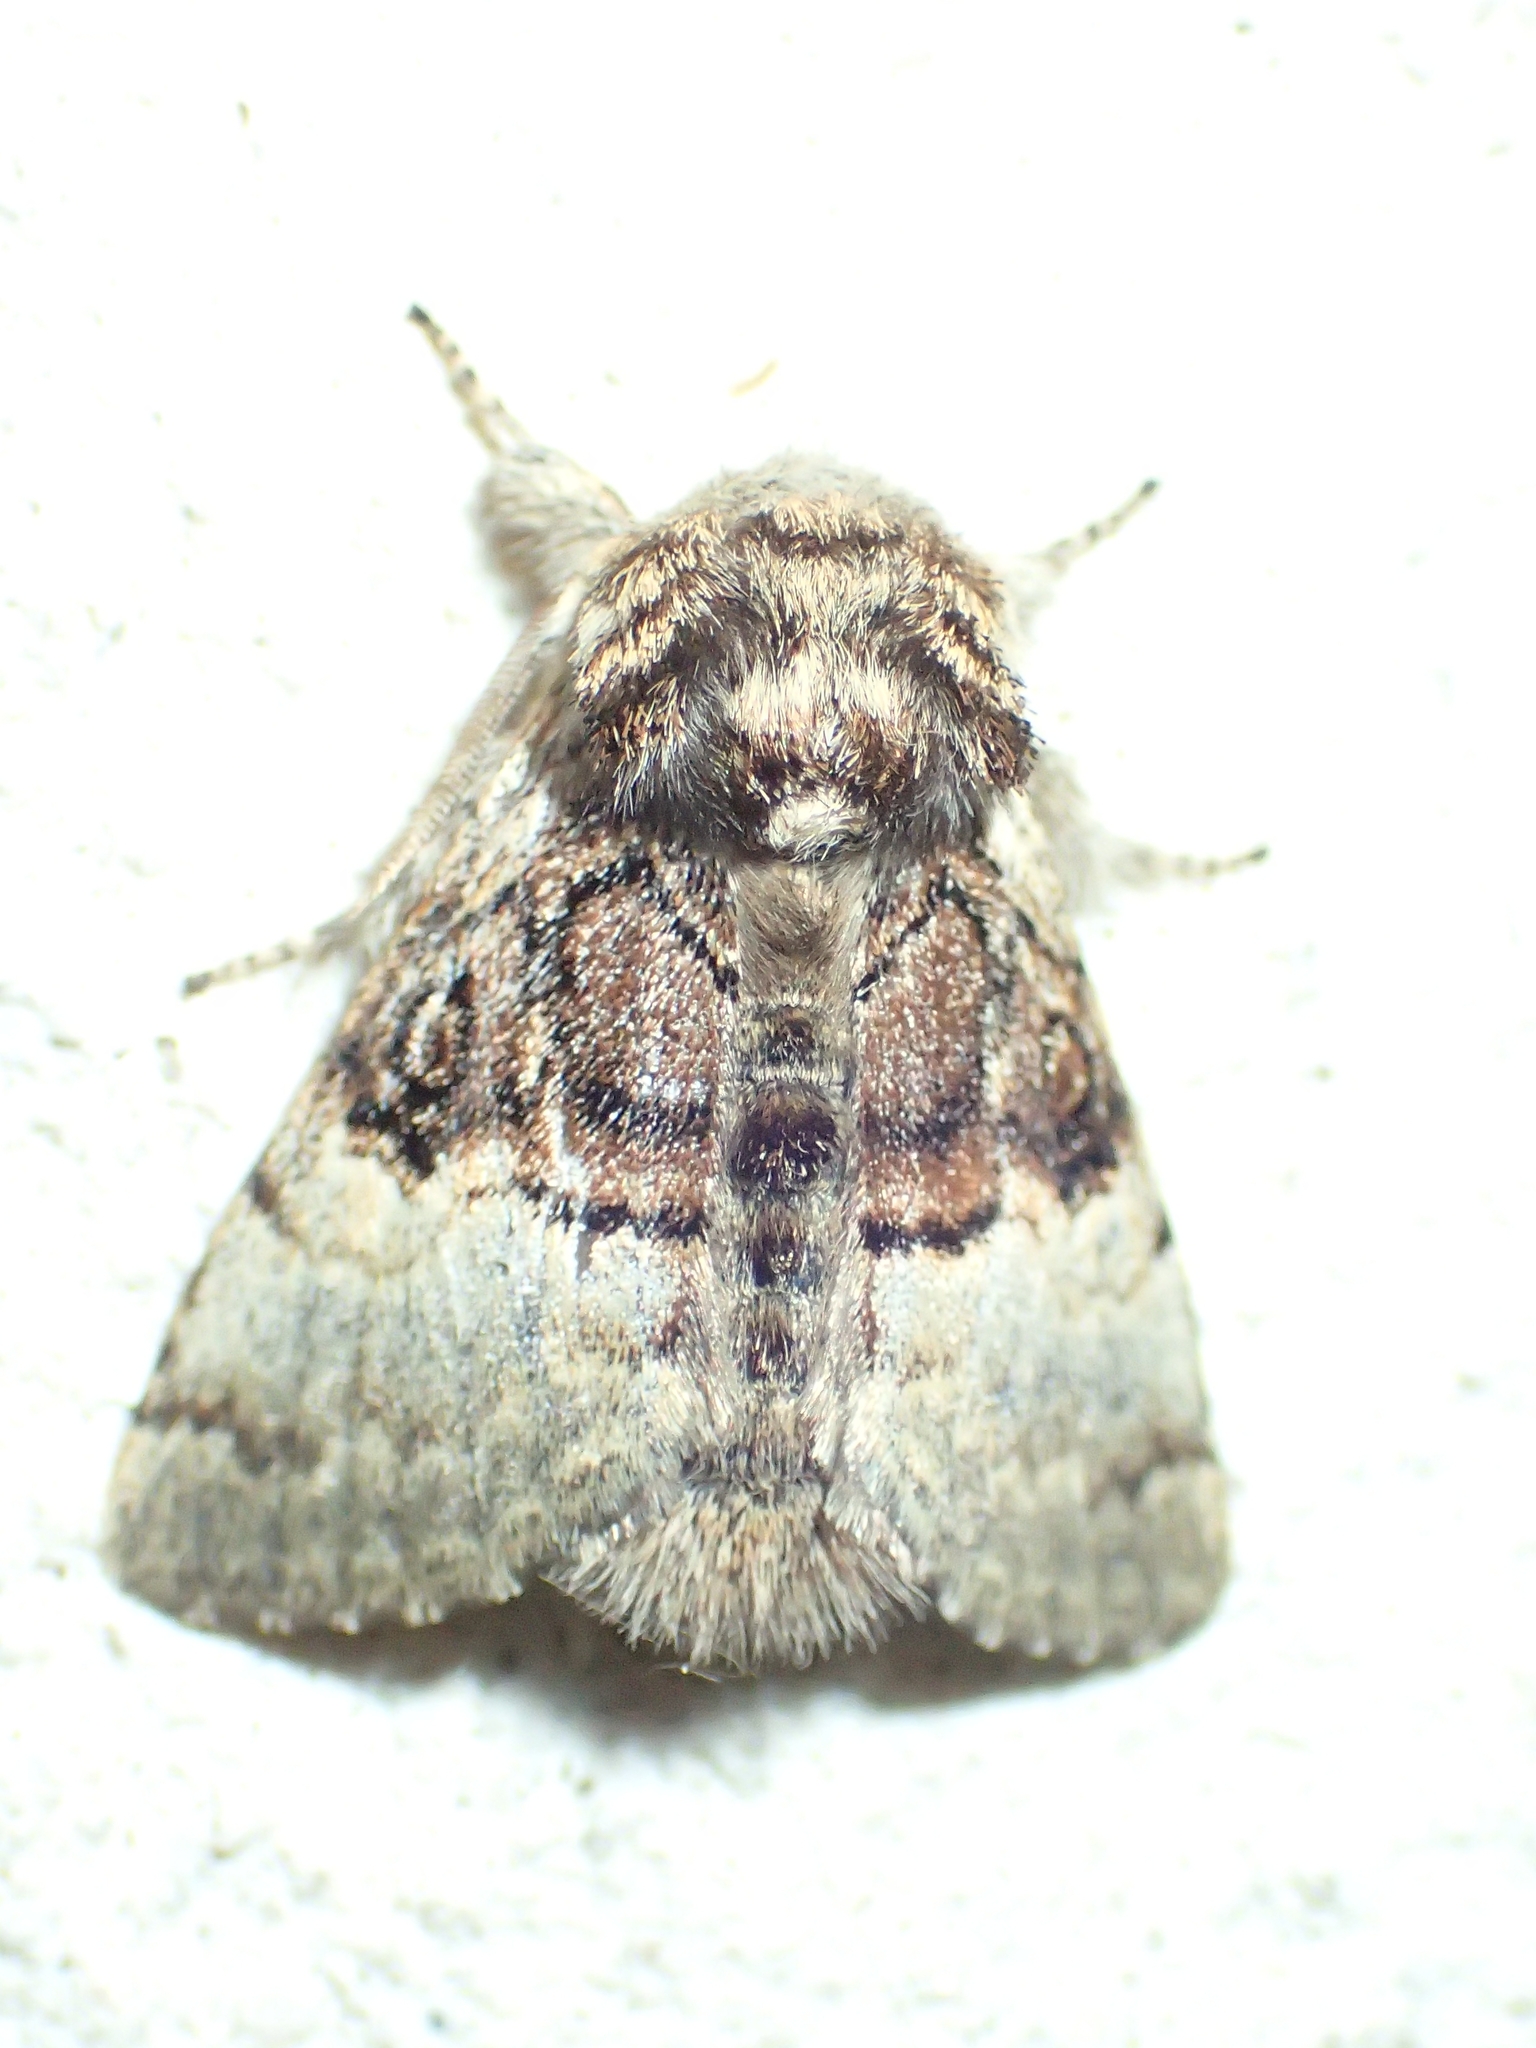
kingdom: Animalia
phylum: Arthropoda
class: Insecta
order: Lepidoptera
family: Noctuidae
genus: Colocasia
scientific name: Colocasia coryli
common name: Nut-tree tussock
